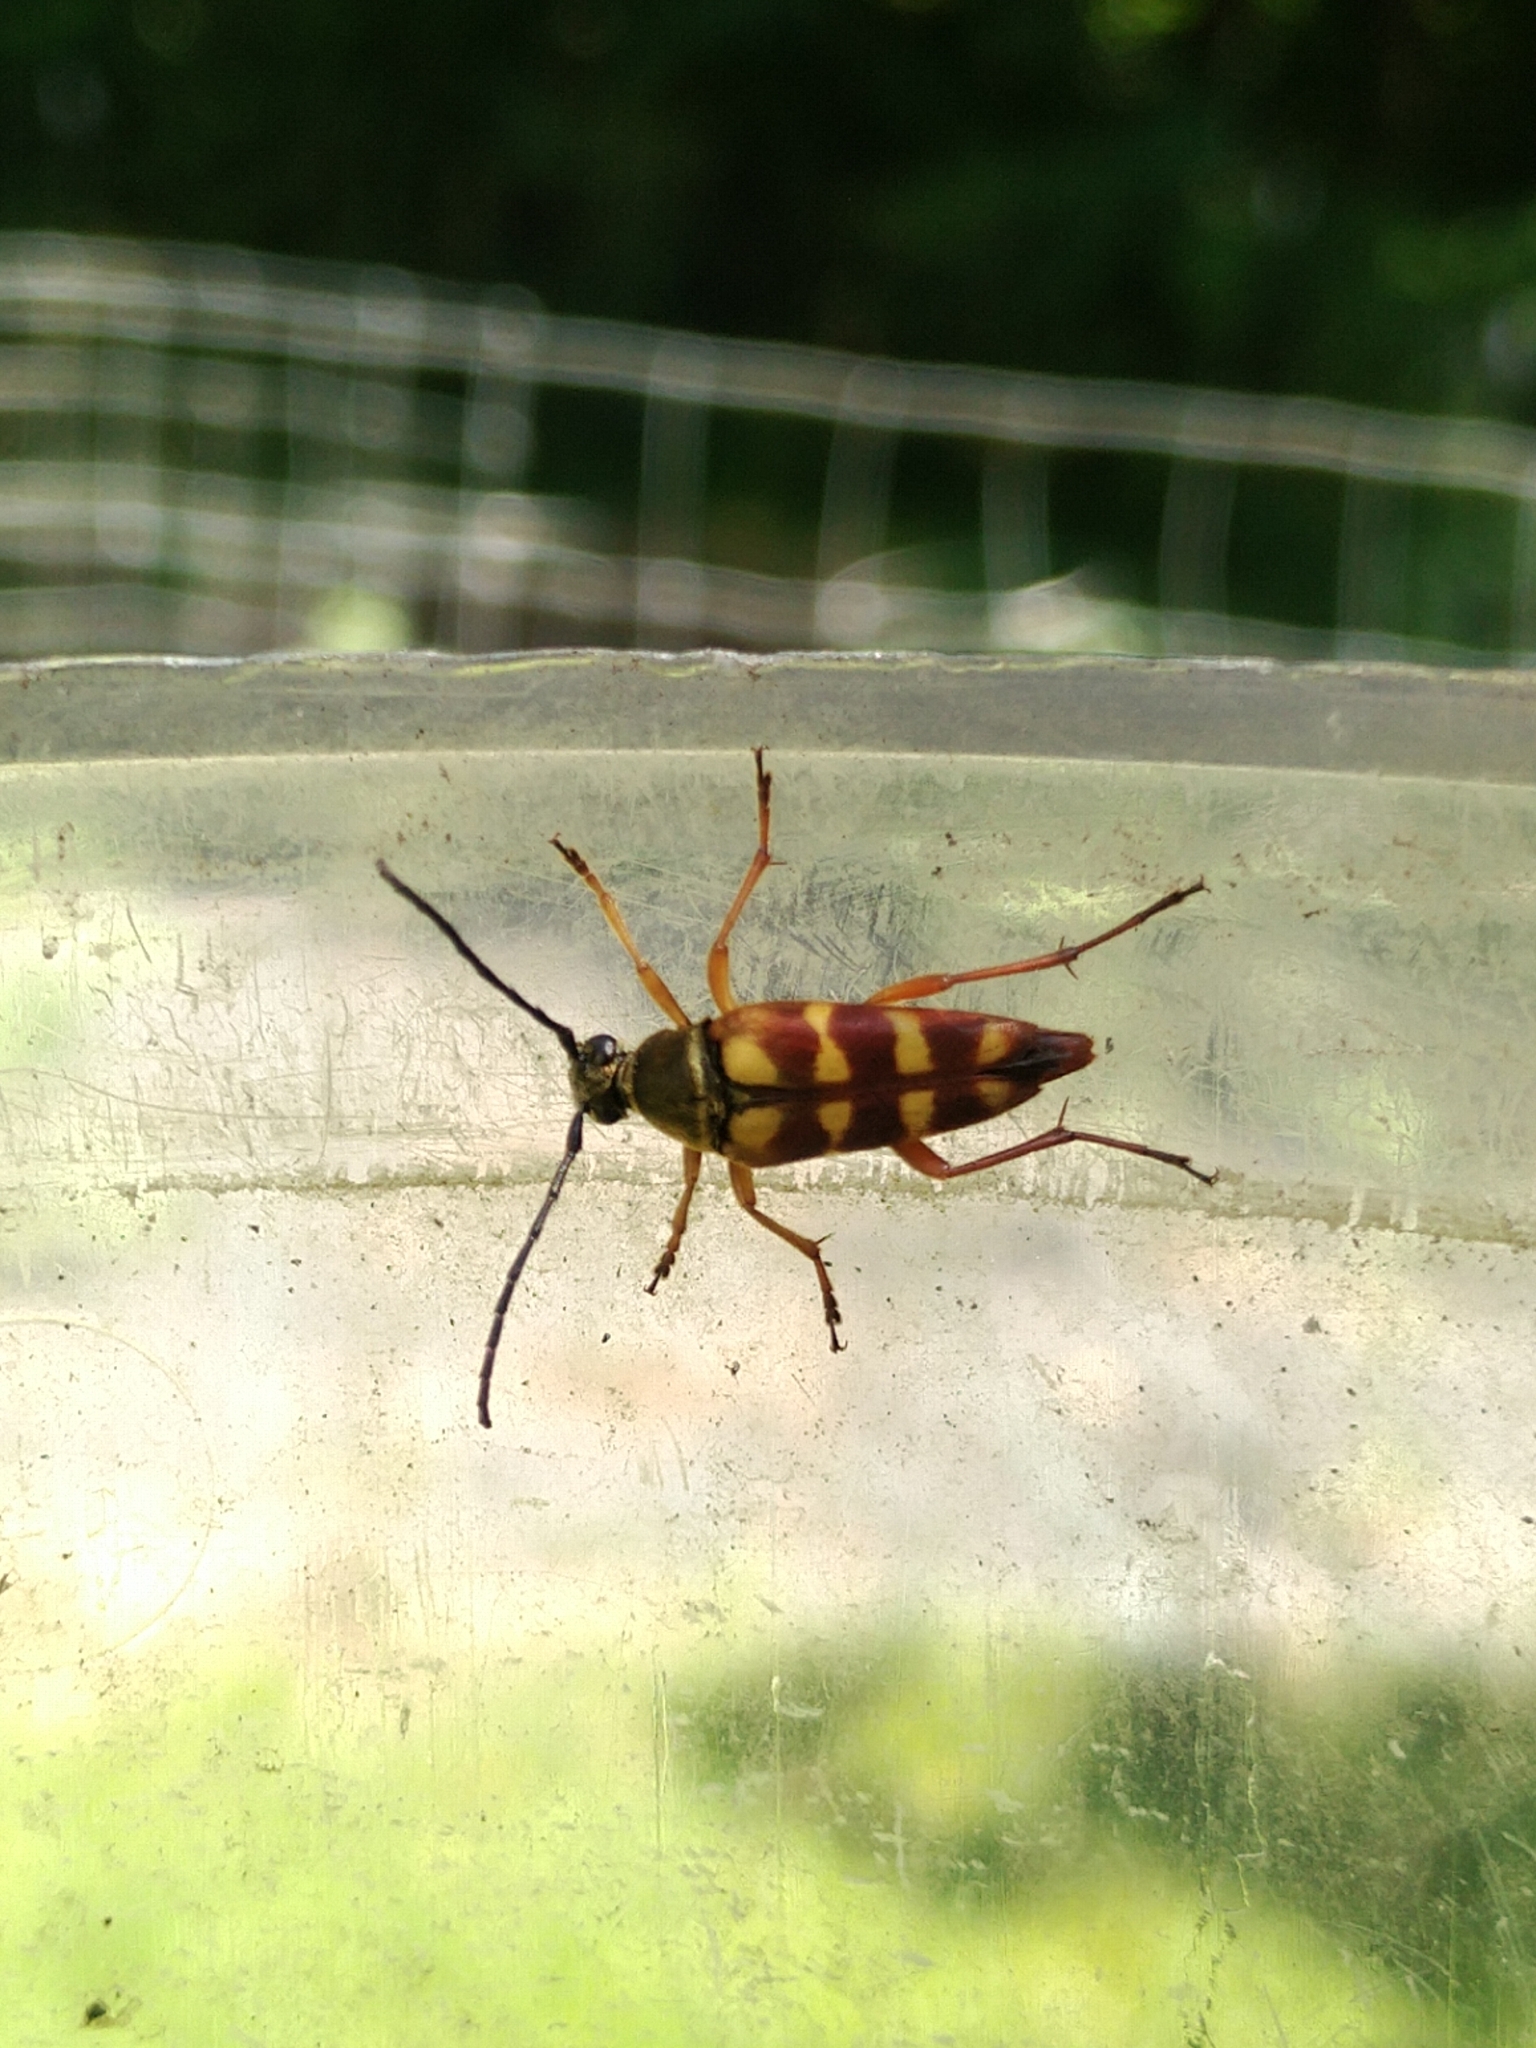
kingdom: Animalia
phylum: Arthropoda
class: Insecta
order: Coleoptera
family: Cerambycidae
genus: Typocerus
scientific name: Typocerus velutinus
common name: Banded longhorn beetle
